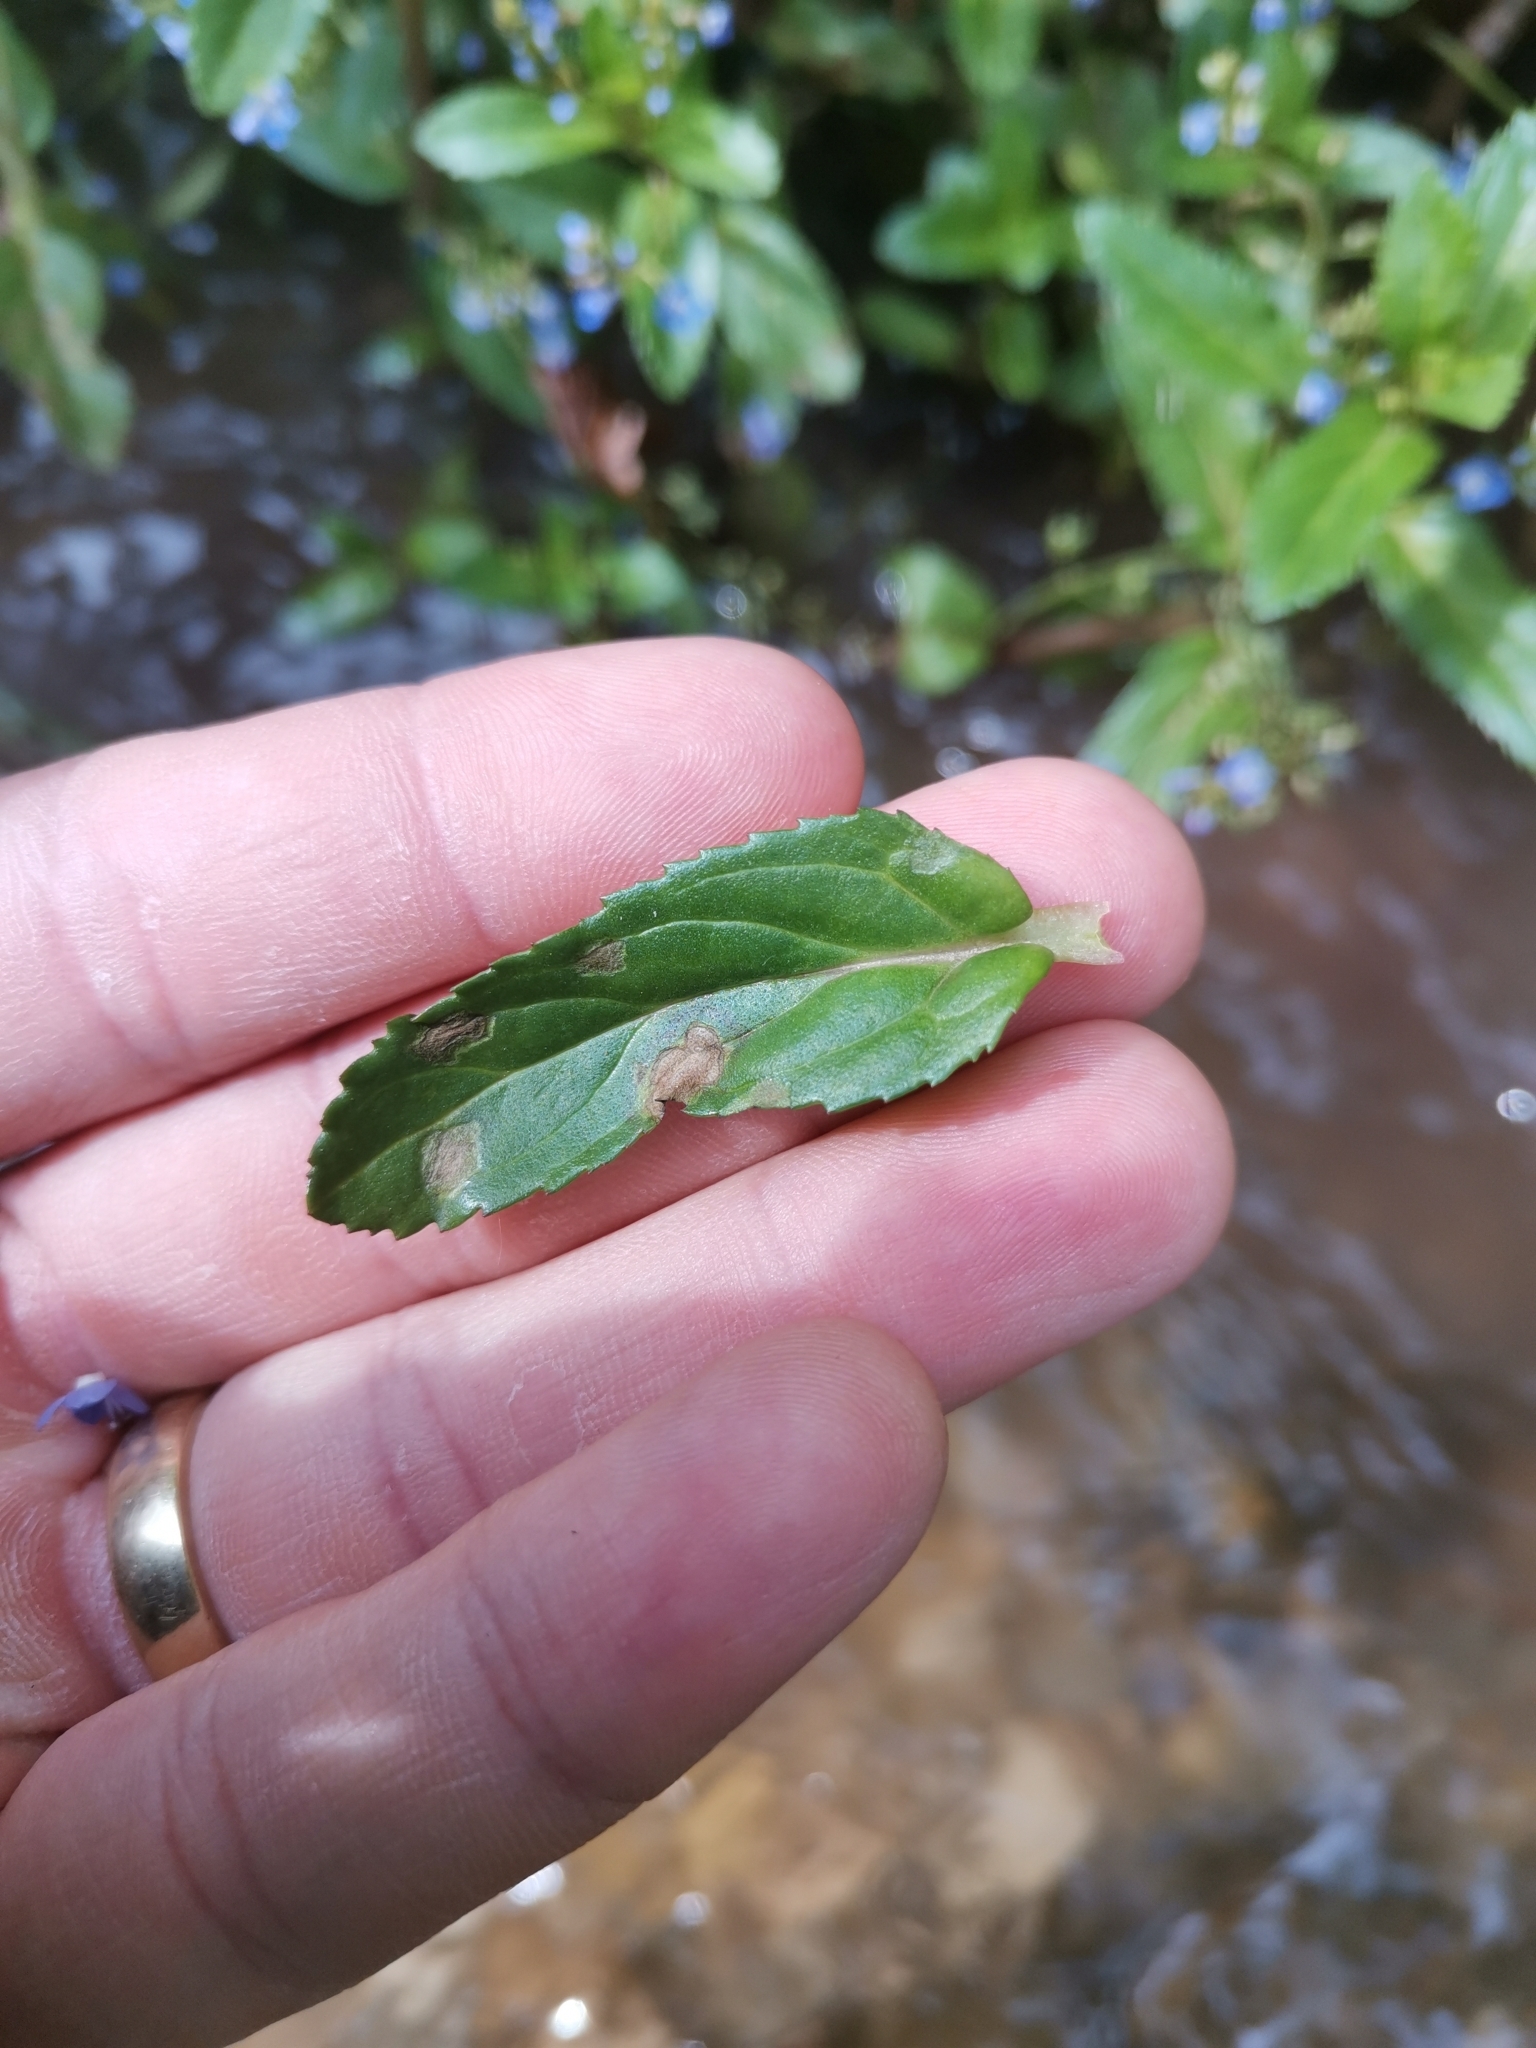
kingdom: Plantae
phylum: Tracheophyta
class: Magnoliopsida
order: Lamiales
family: Plantaginaceae
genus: Veronica
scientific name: Veronica beccabunga
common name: Brooklime
